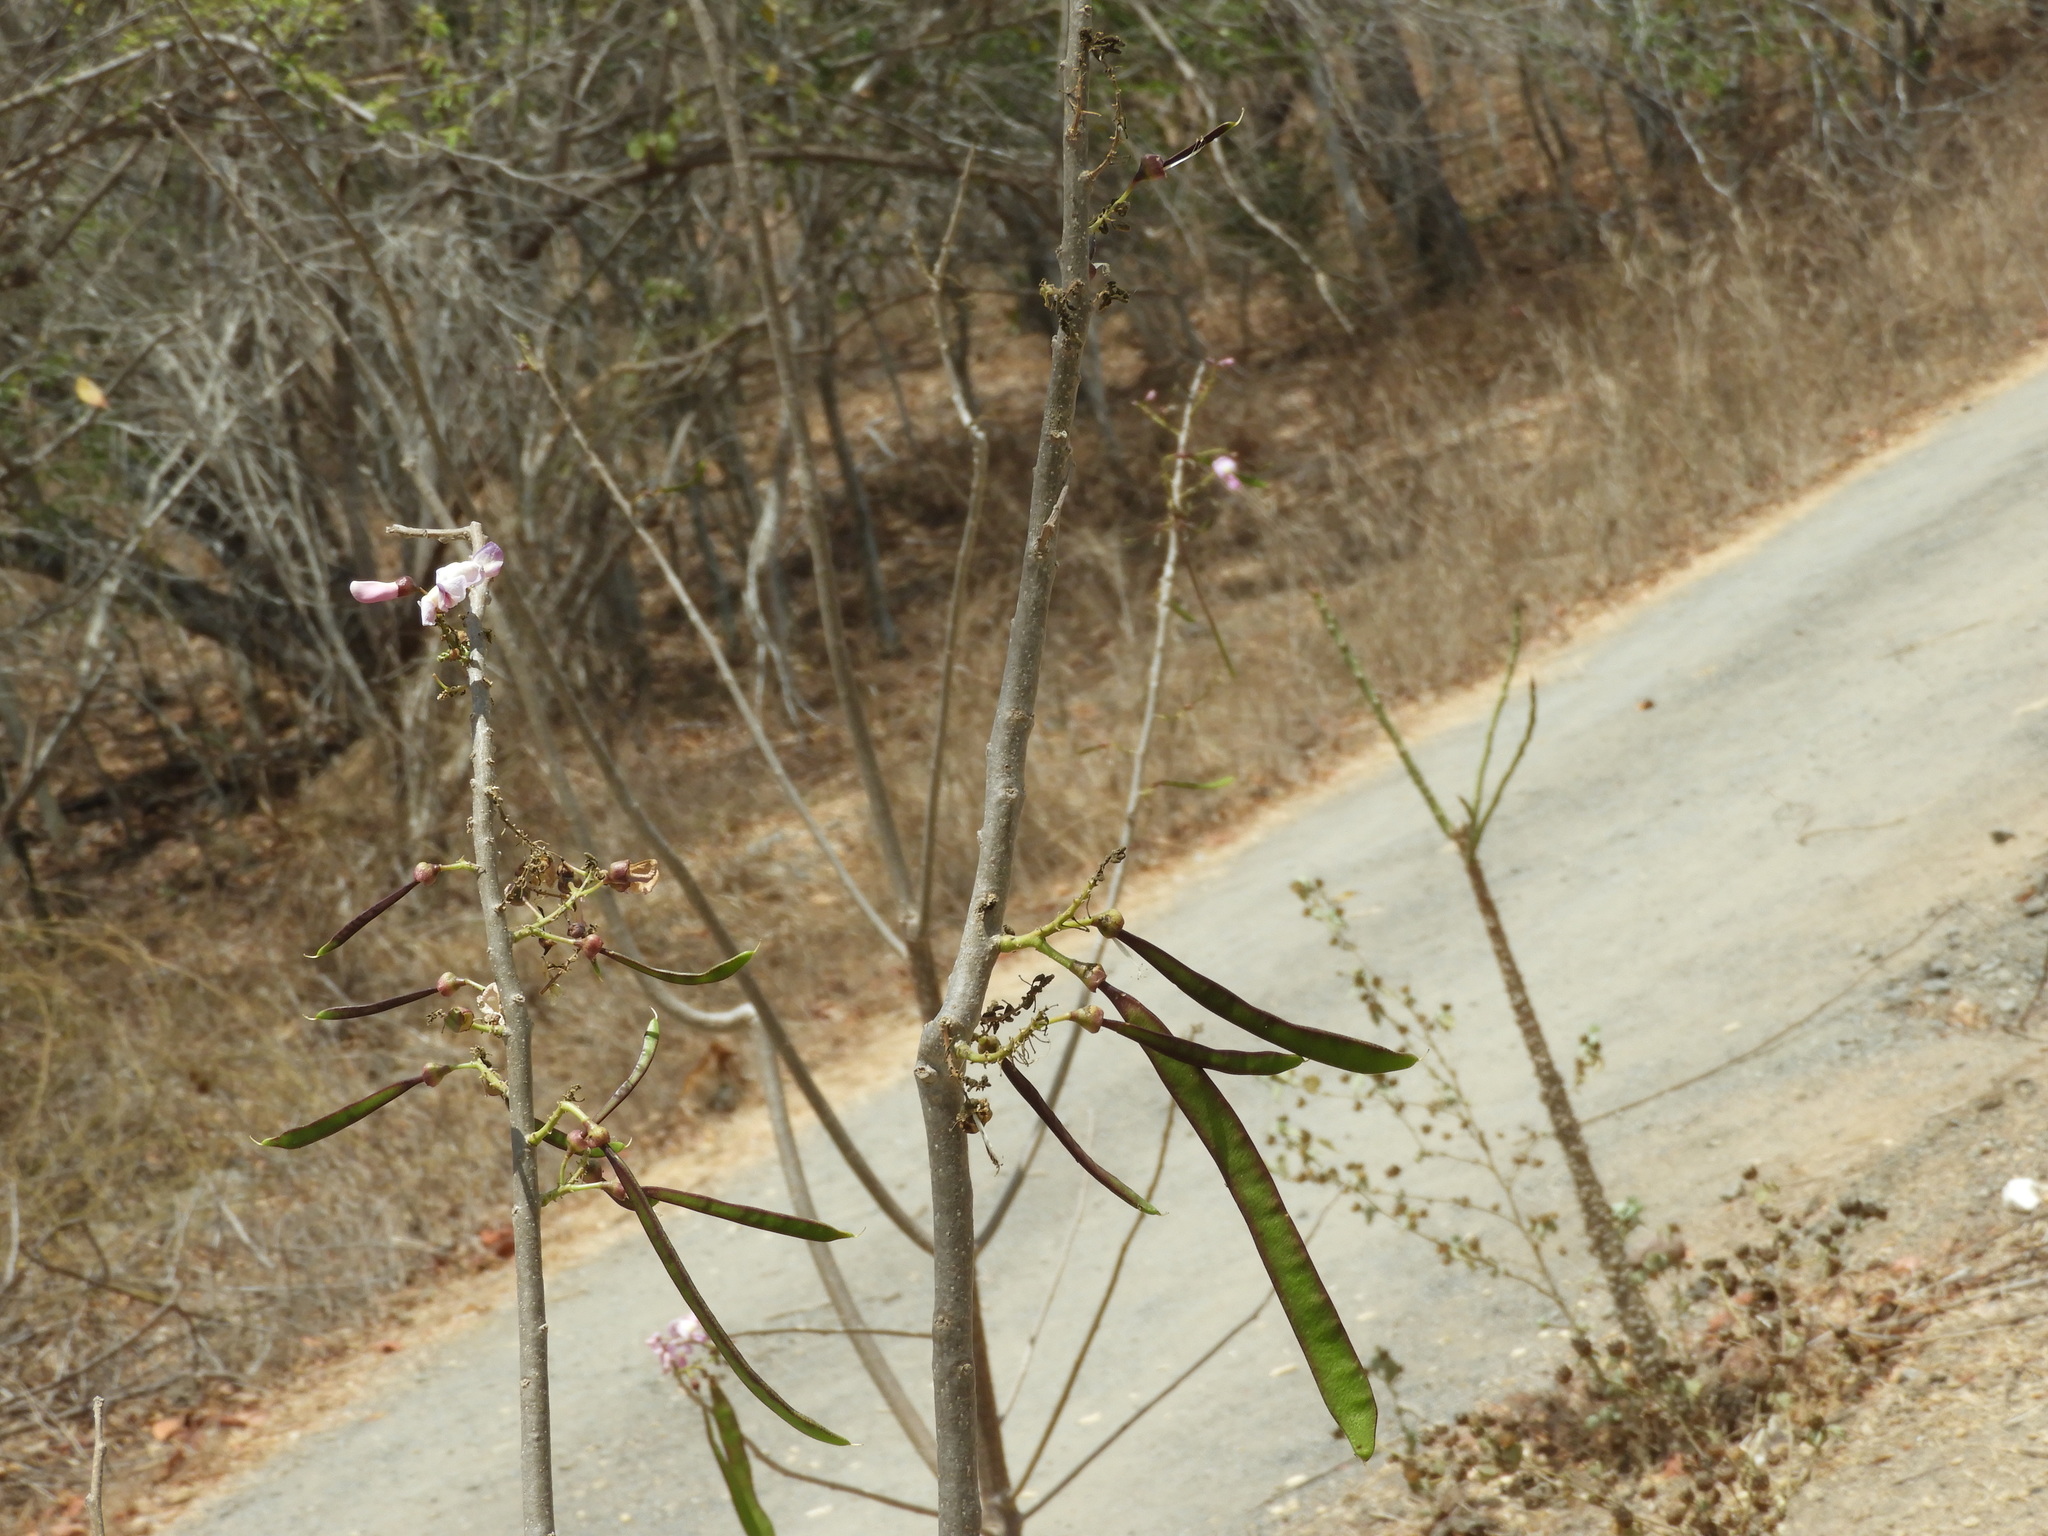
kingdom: Plantae
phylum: Tracheophyta
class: Magnoliopsida
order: Fabales
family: Fabaceae
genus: Gliricidia
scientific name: Gliricidia sepium
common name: Quickstick
